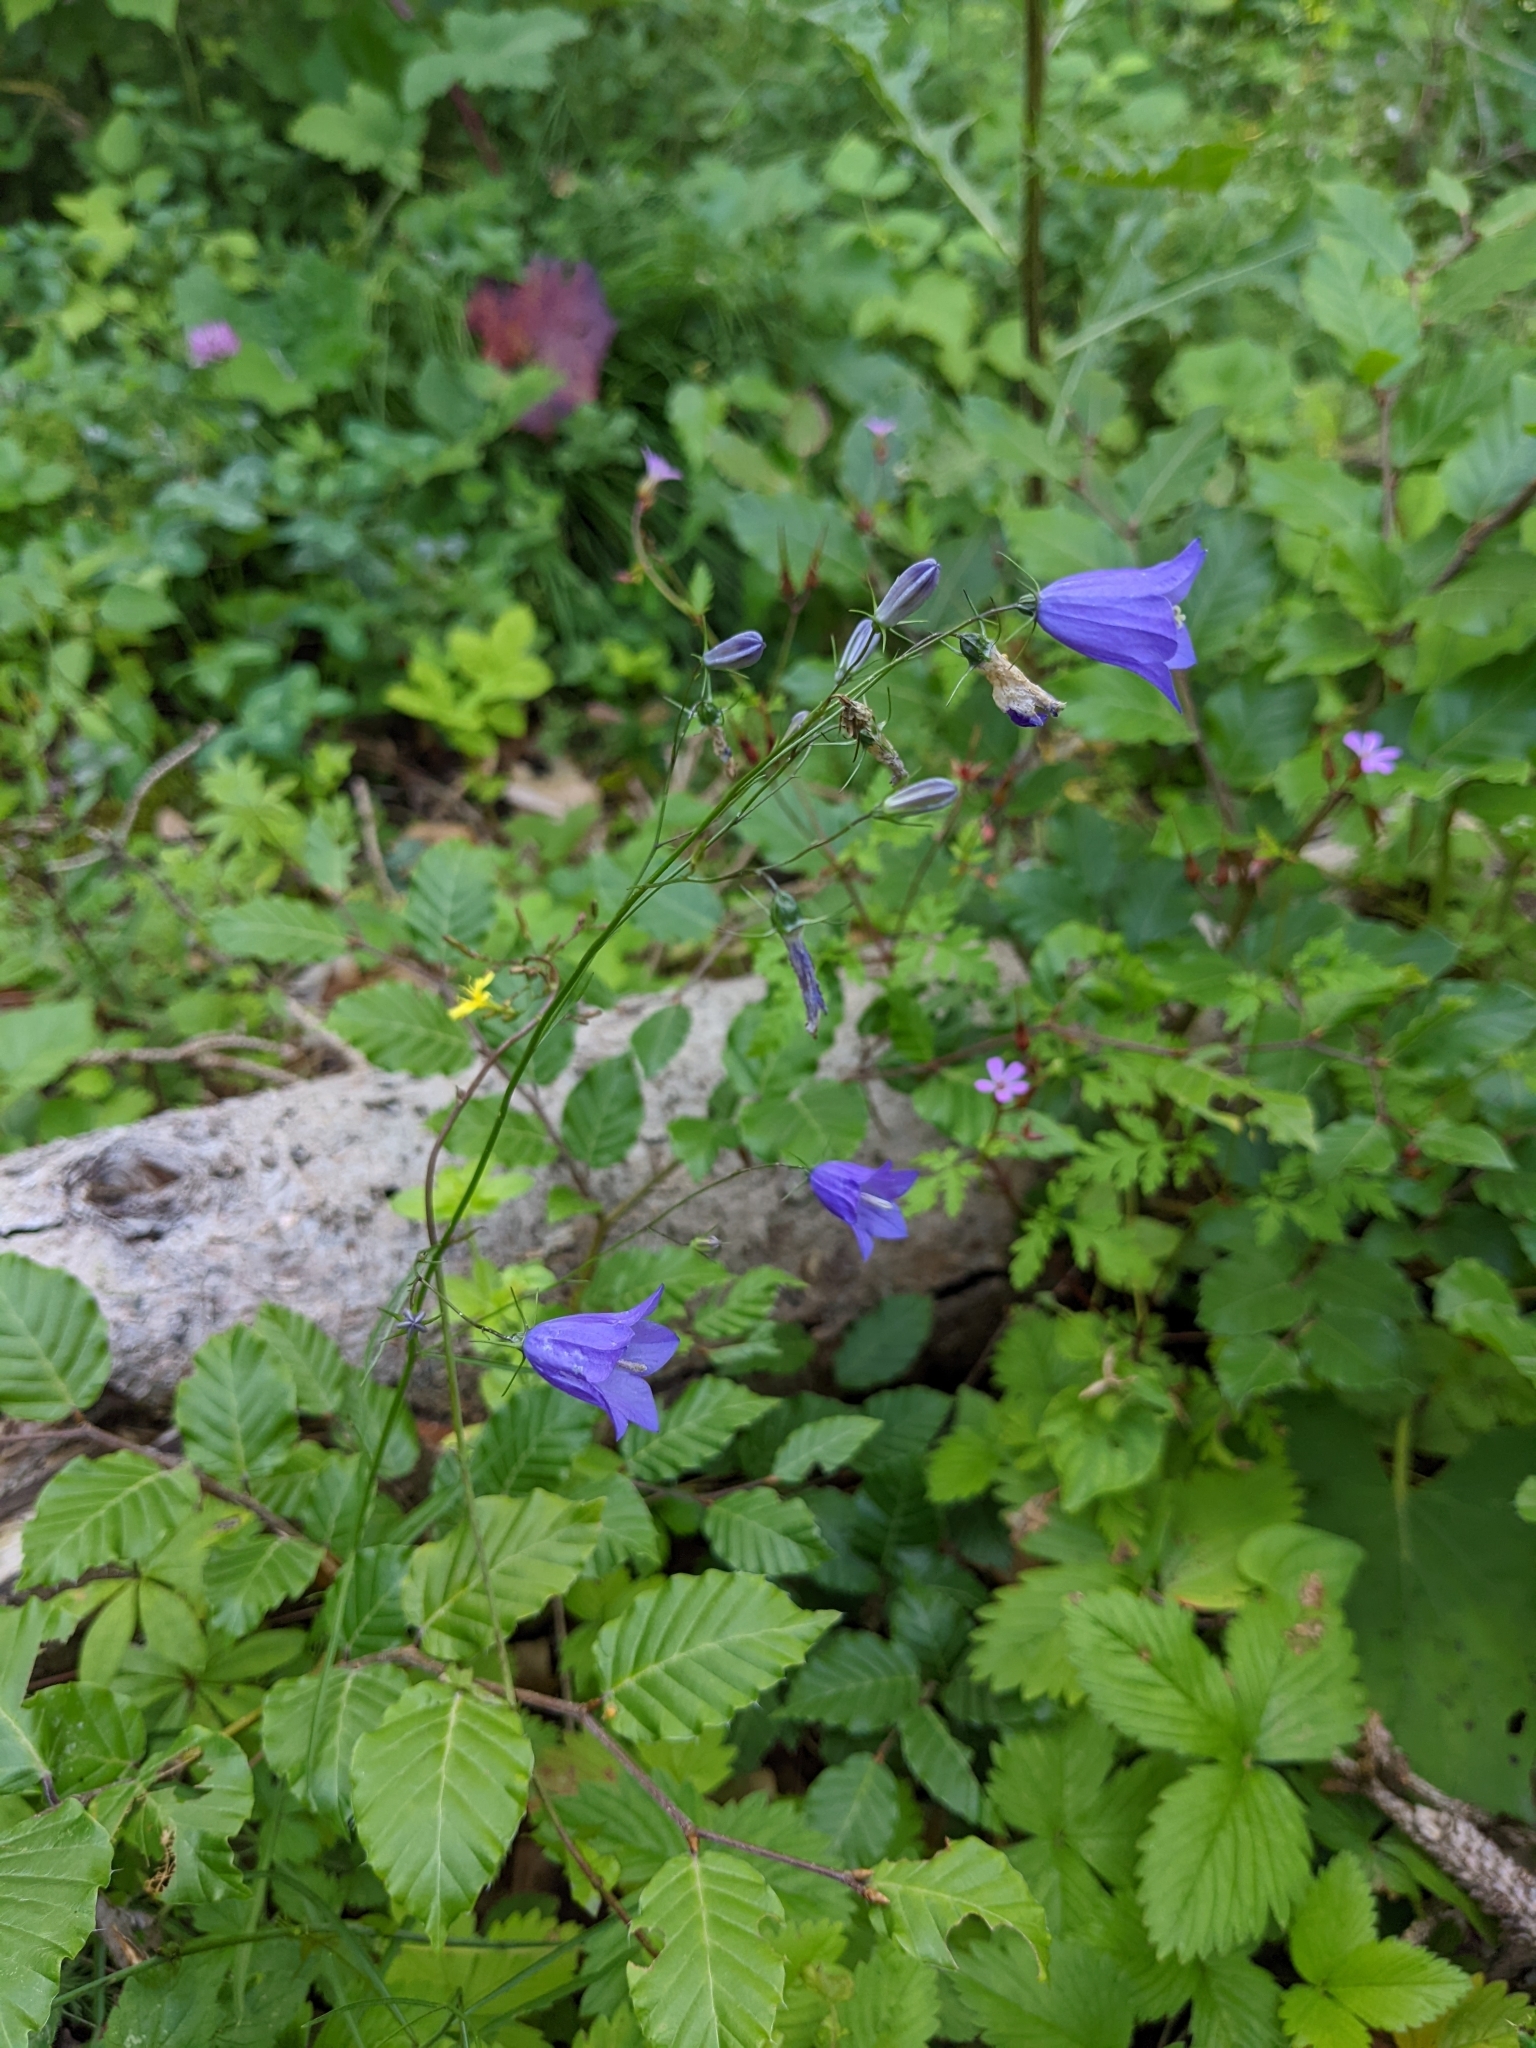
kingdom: Plantae
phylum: Tracheophyta
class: Magnoliopsida
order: Asterales
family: Campanulaceae
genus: Campanula
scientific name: Campanula rotundifolia
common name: Harebell
